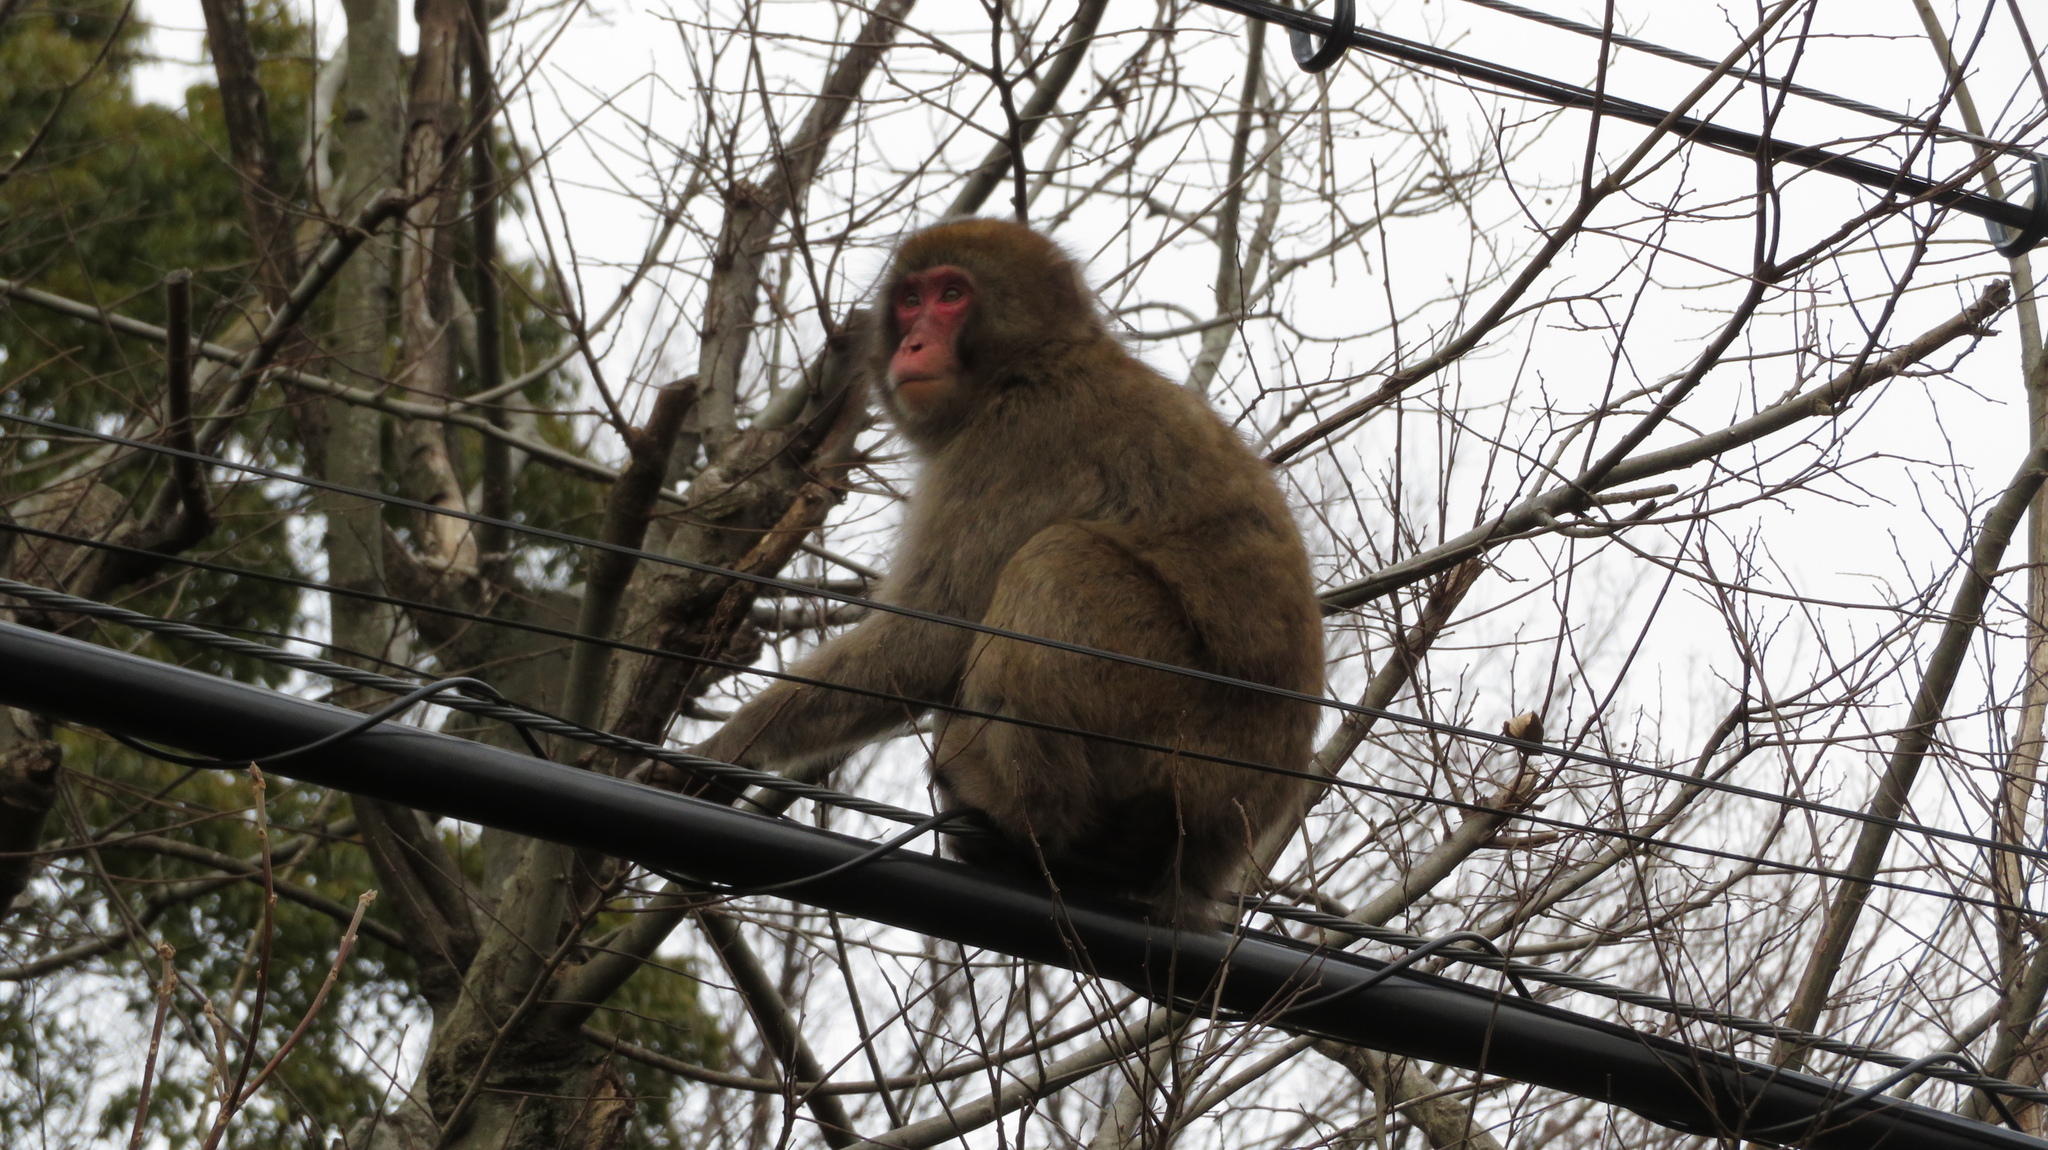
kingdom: Animalia
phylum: Chordata
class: Mammalia
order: Primates
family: Cercopithecidae
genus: Macaca
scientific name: Macaca fuscata
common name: Japanese macaque
